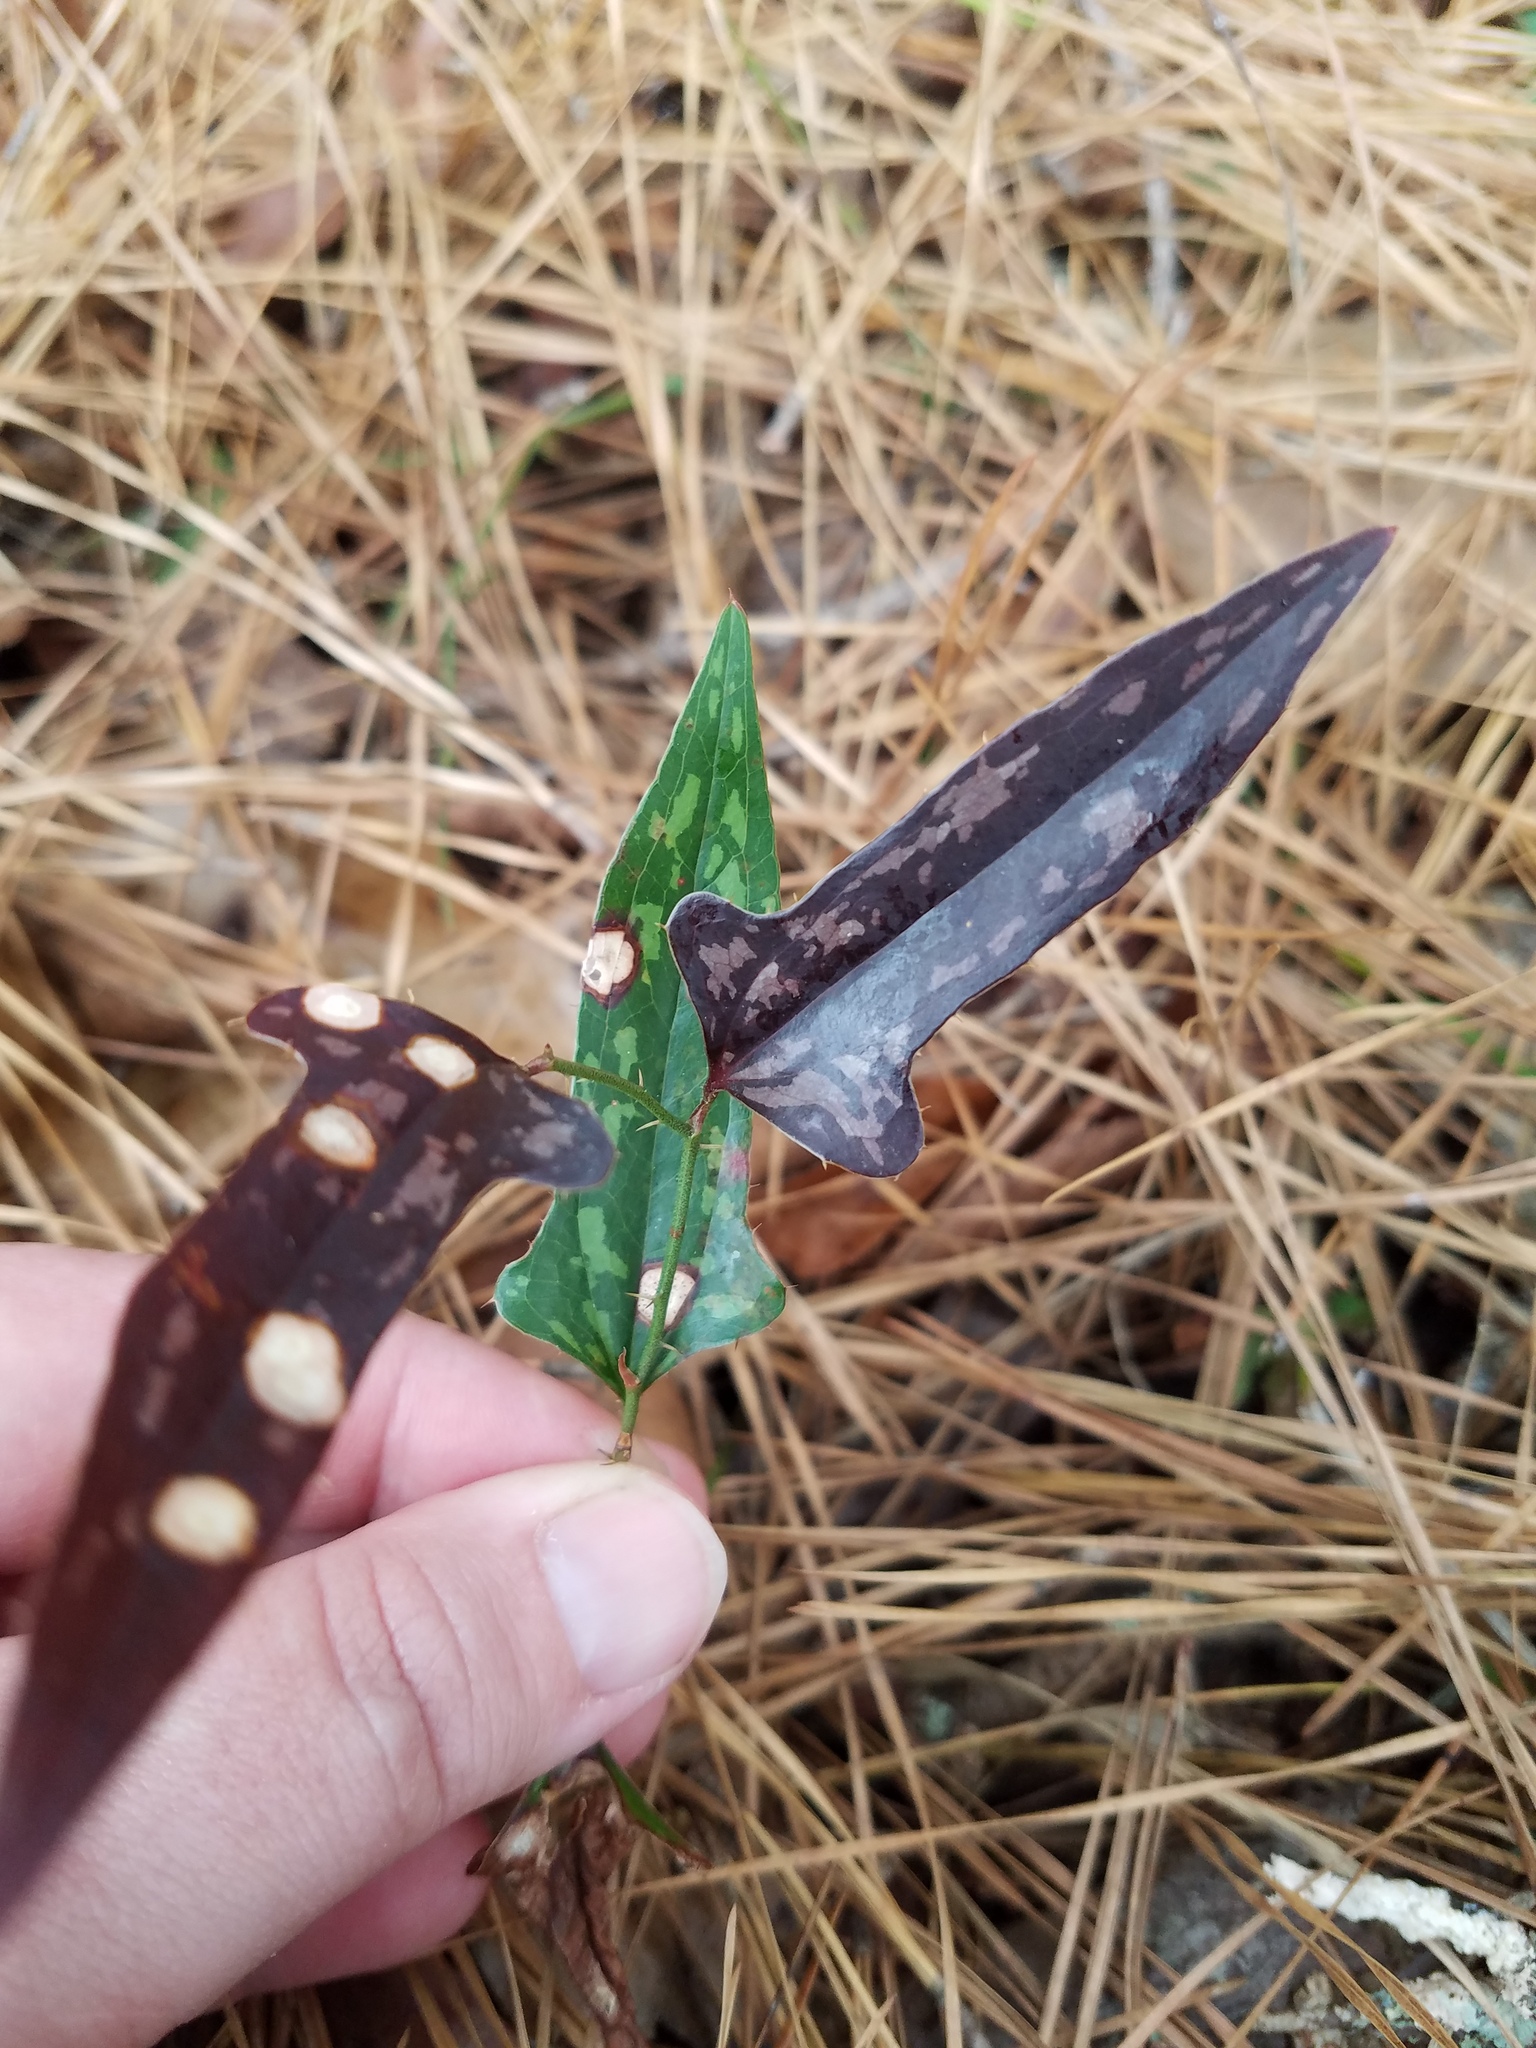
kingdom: Plantae
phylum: Tracheophyta
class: Liliopsida
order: Liliales
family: Smilacaceae
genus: Smilax
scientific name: Smilax bona-nox
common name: Catbrier
